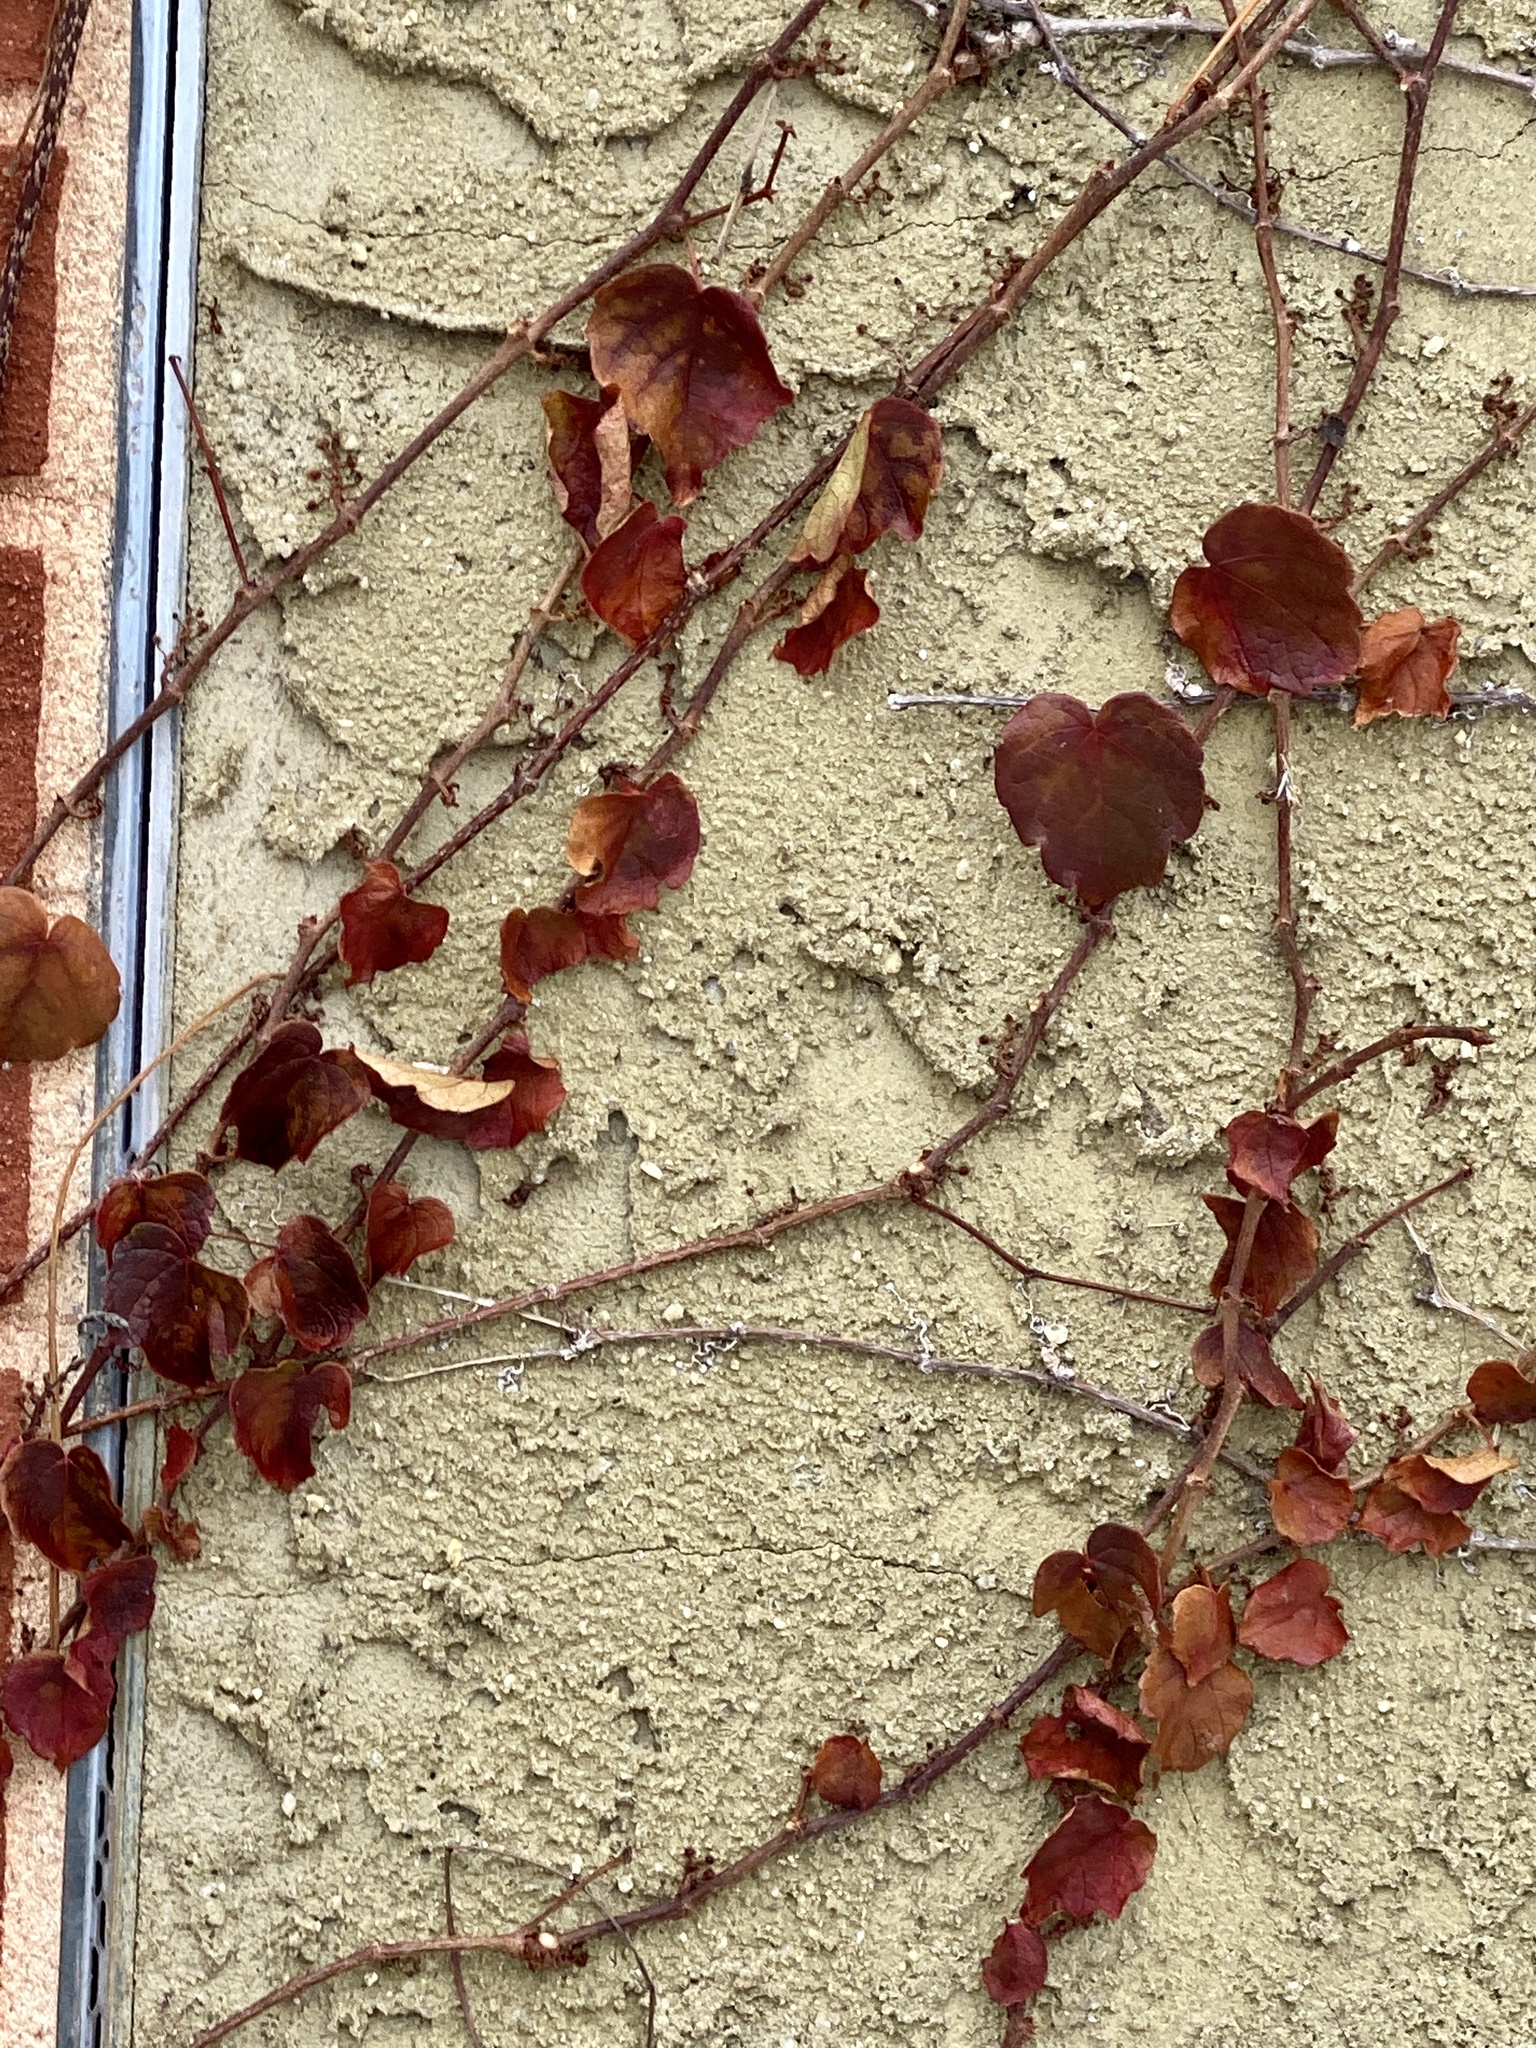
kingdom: Plantae
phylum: Tracheophyta
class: Magnoliopsida
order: Vitales
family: Vitaceae
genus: Parthenocissus
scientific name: Parthenocissus tricuspidata
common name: Boston ivy
